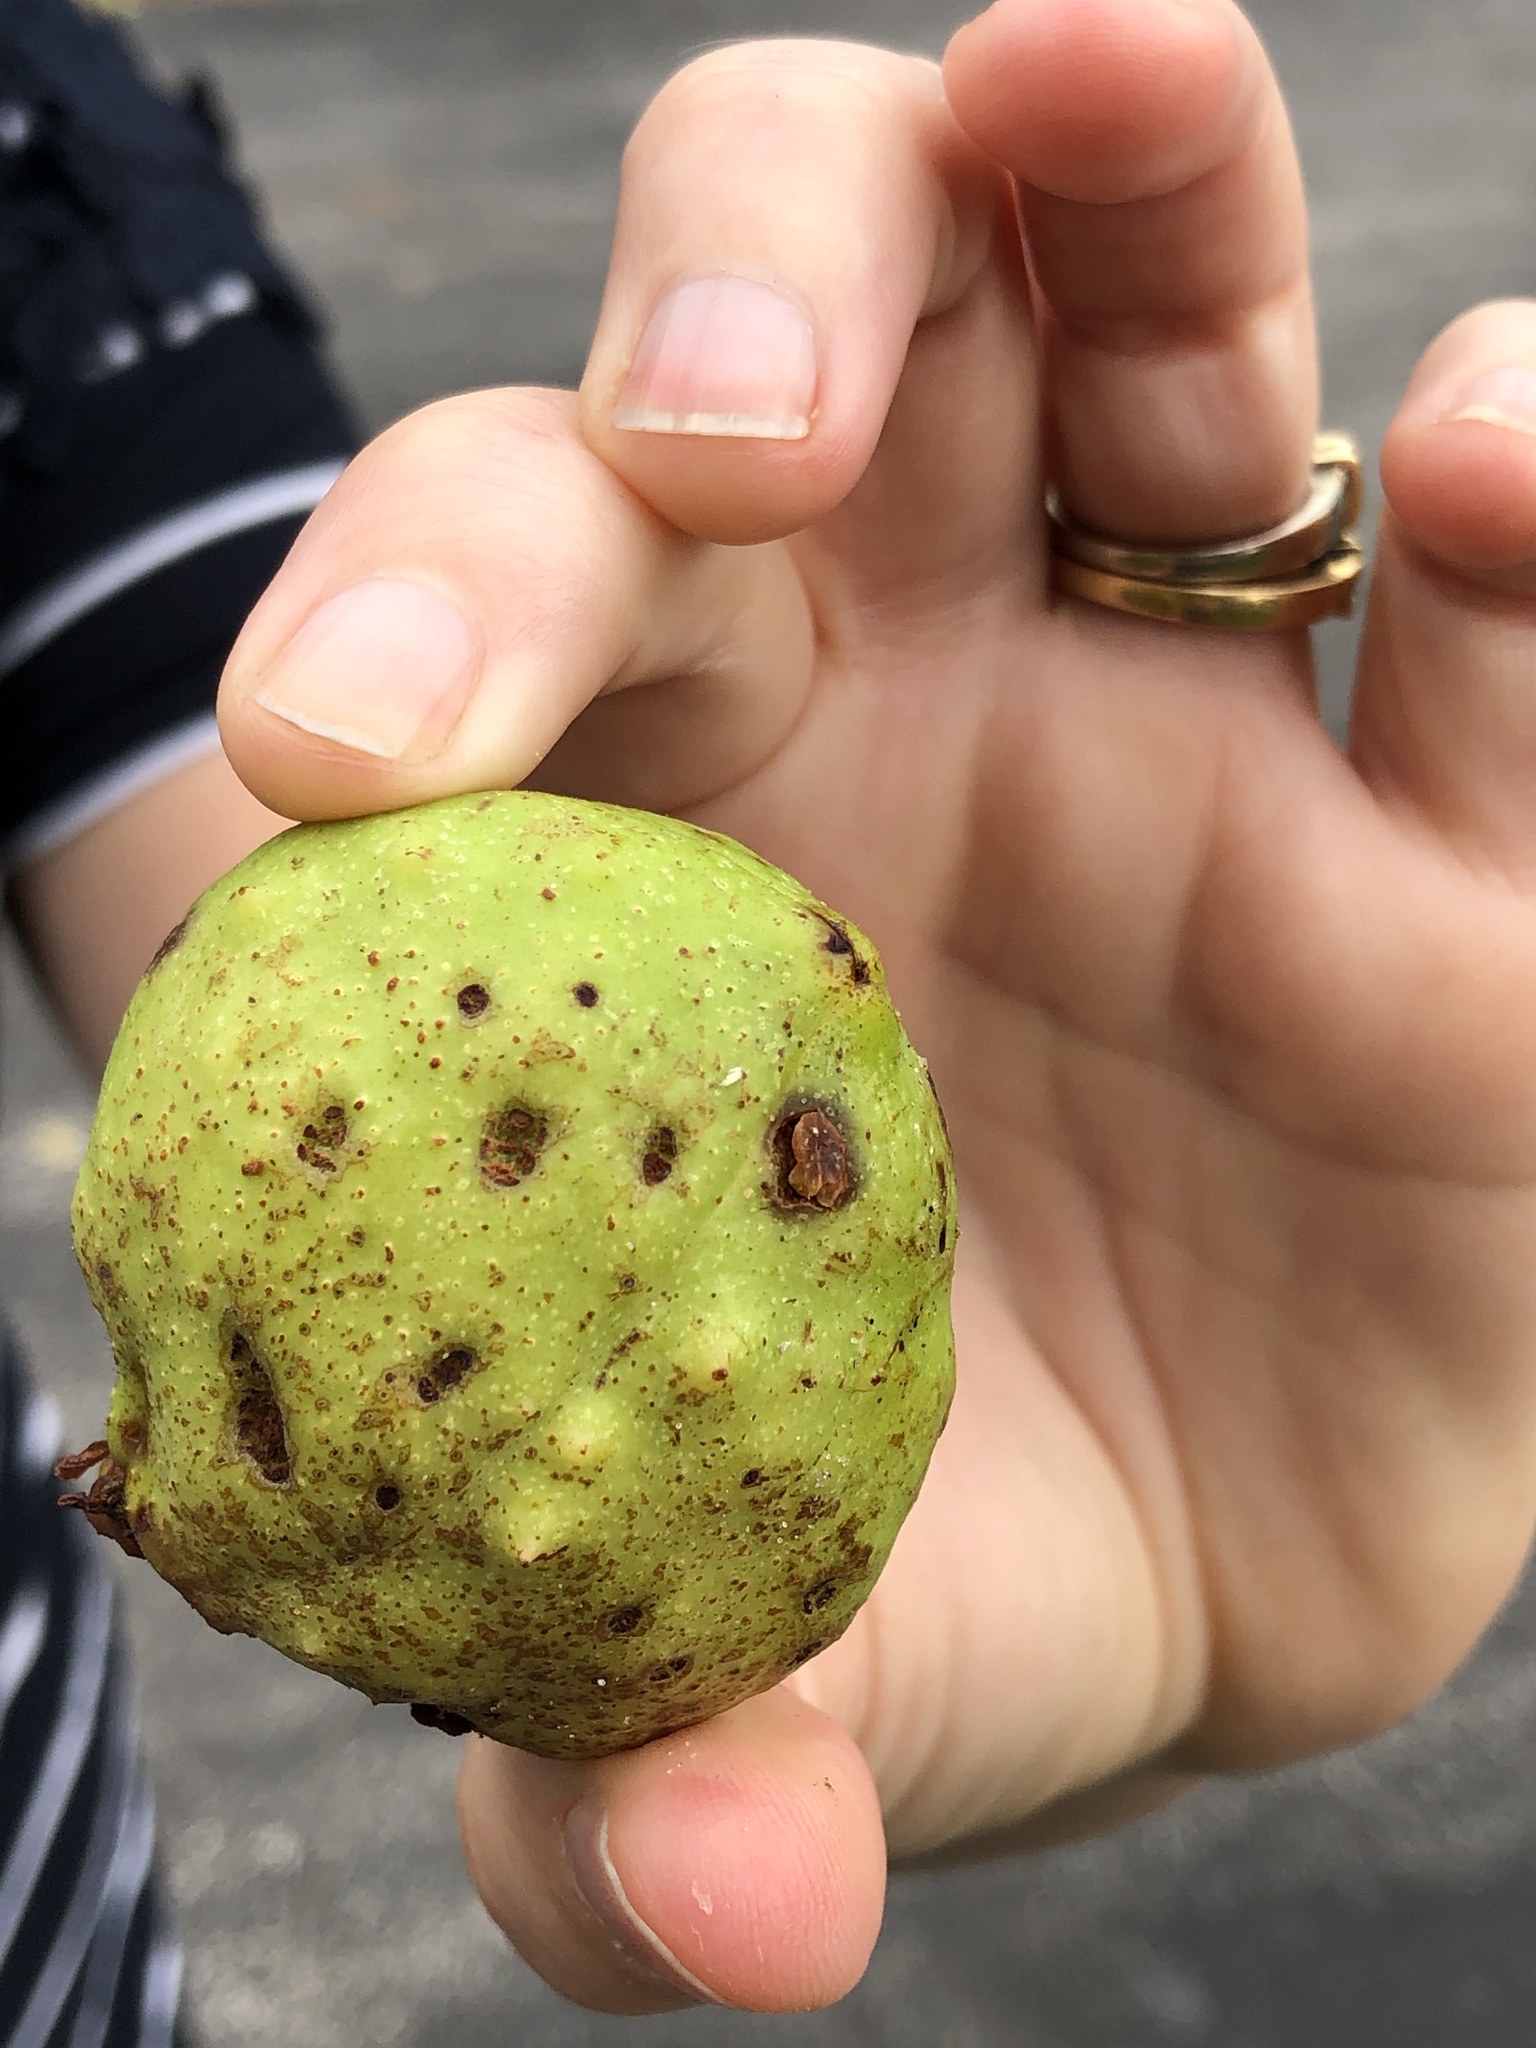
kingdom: Plantae
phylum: Tracheophyta
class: Magnoliopsida
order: Fagales
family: Juglandaceae
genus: Juglans
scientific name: Juglans nigra
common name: Black walnut
